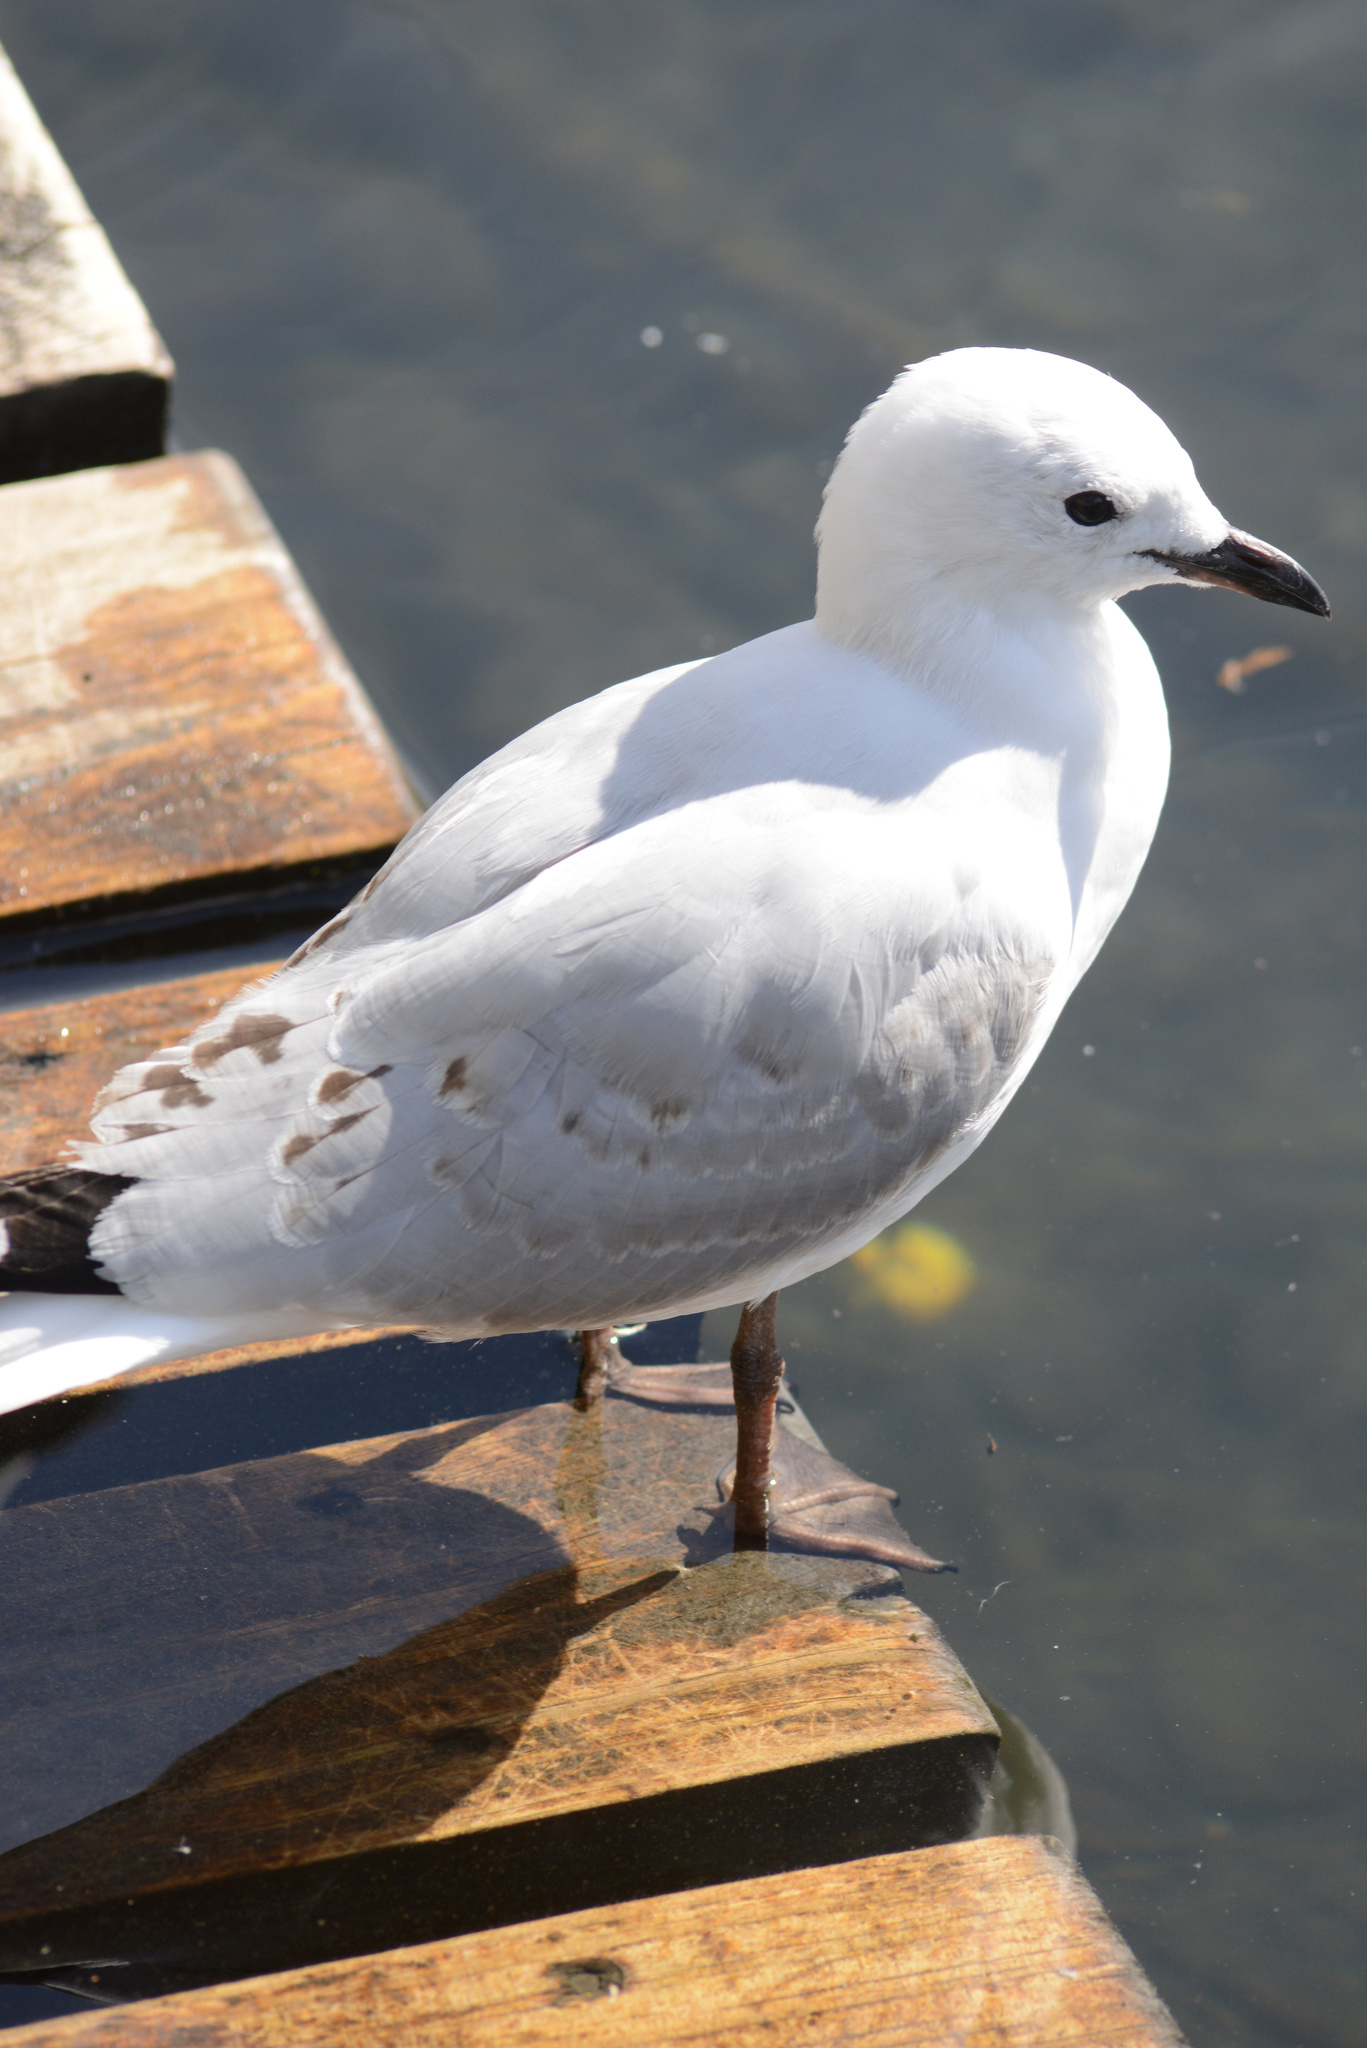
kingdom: Animalia
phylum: Chordata
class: Aves
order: Charadriiformes
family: Laridae
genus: Chroicocephalus
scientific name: Chroicocephalus novaehollandiae
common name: Silver gull
